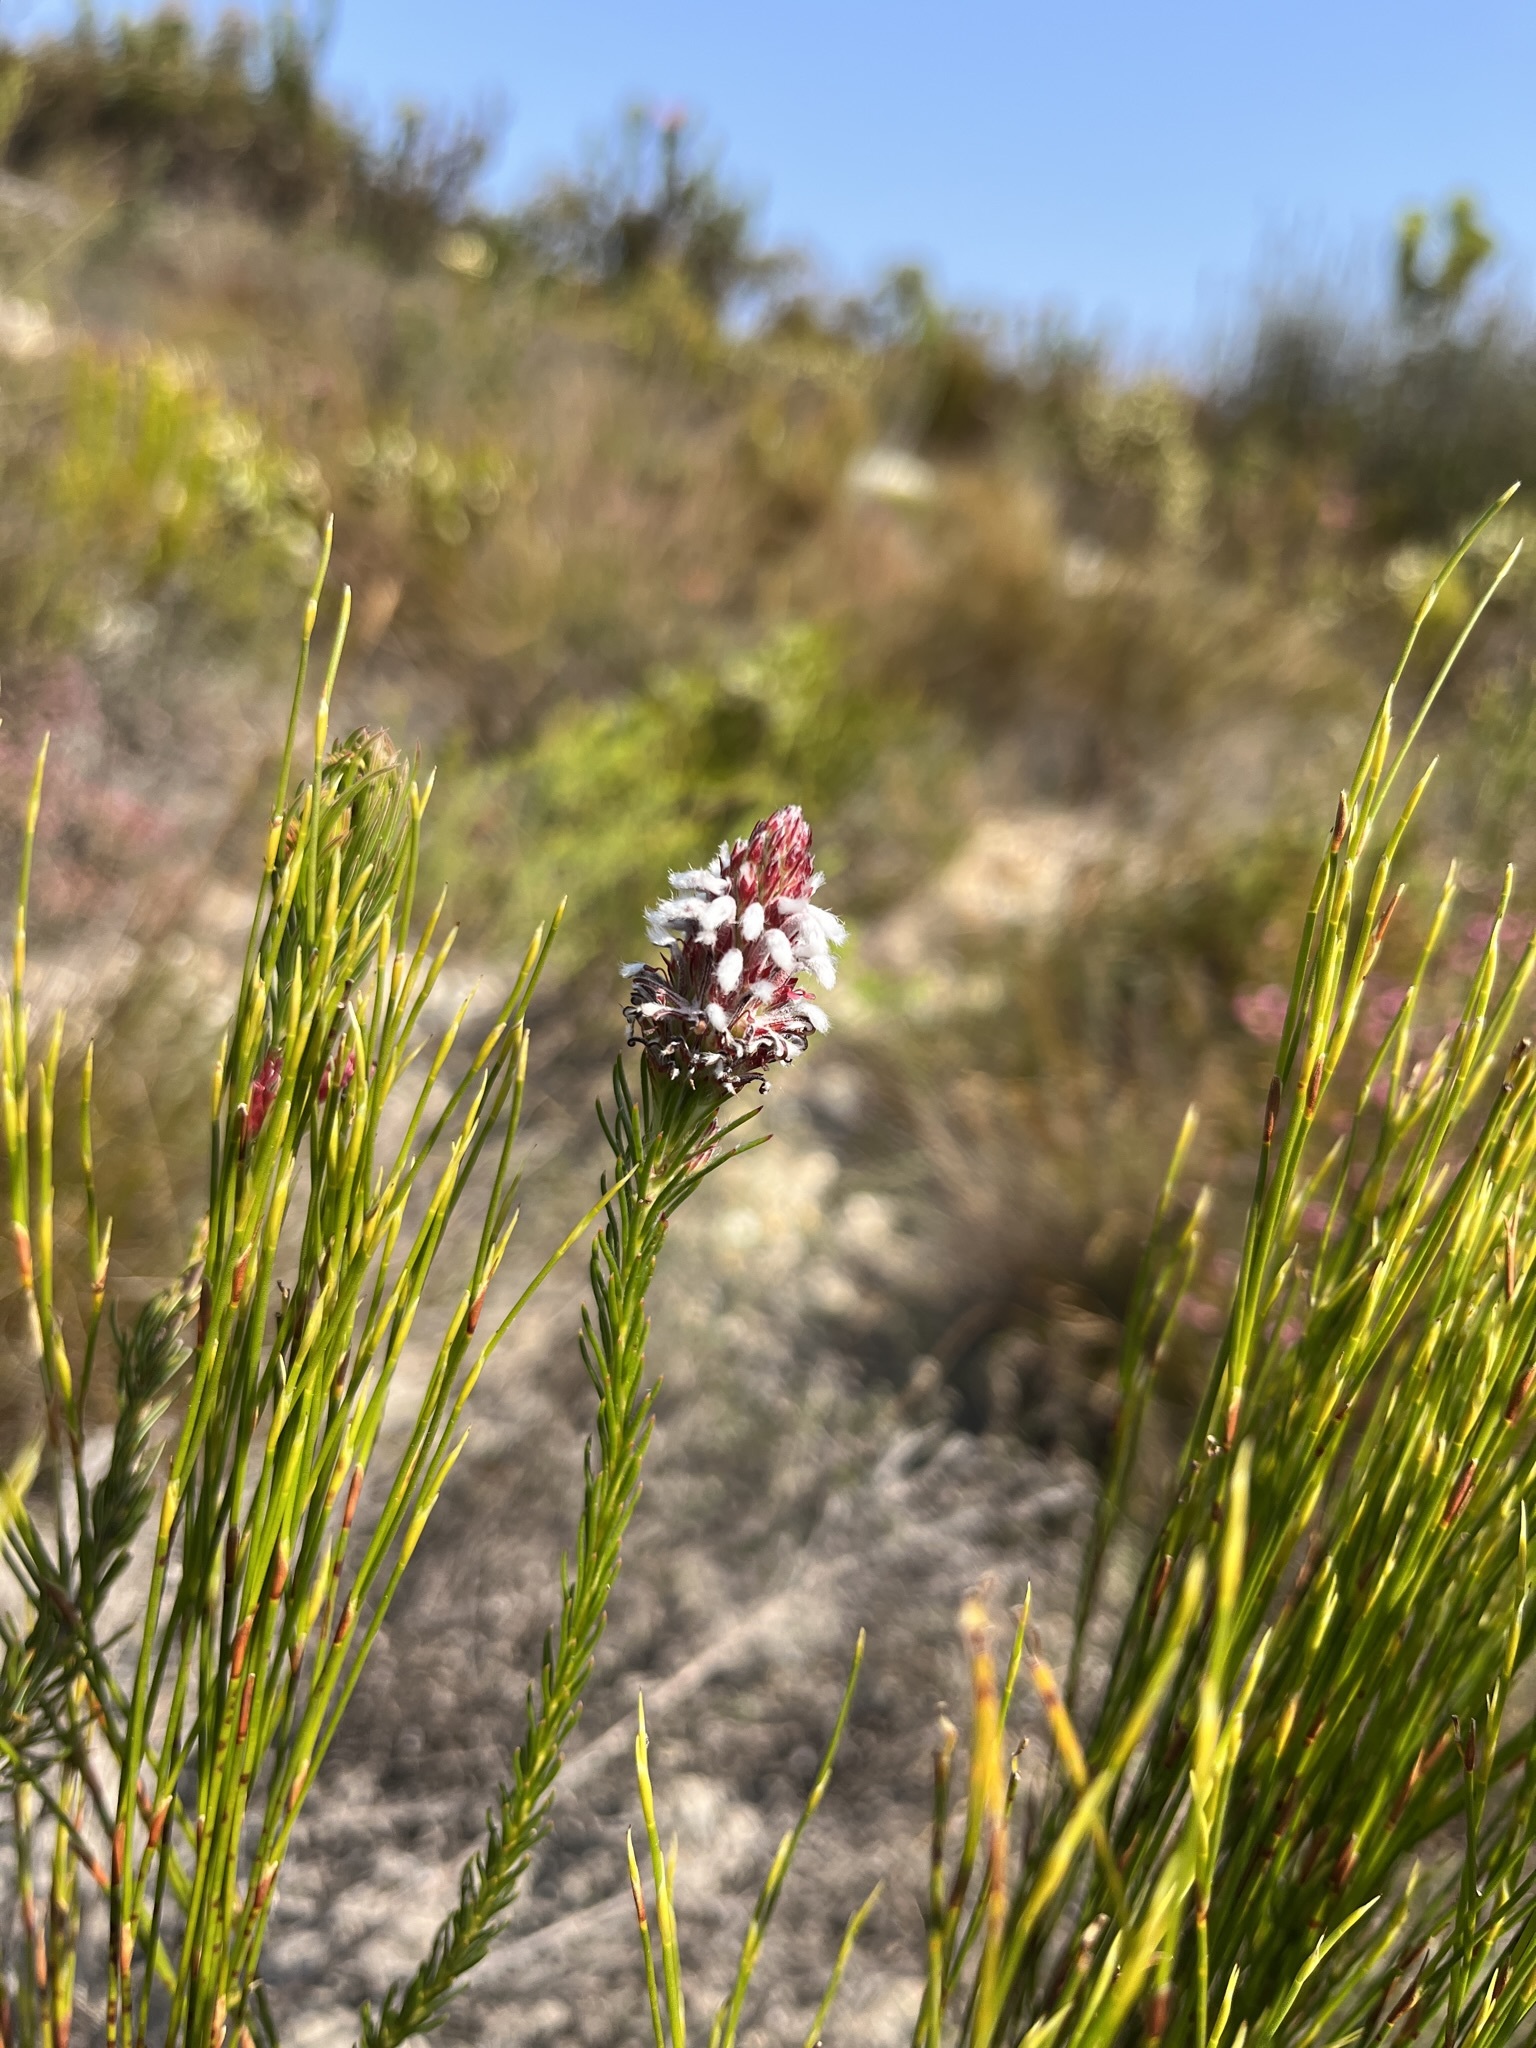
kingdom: Plantae
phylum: Tracheophyta
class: Magnoliopsida
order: Proteales
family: Proteaceae
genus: Spatalla
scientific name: Spatalla squamata
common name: Silky spoon
